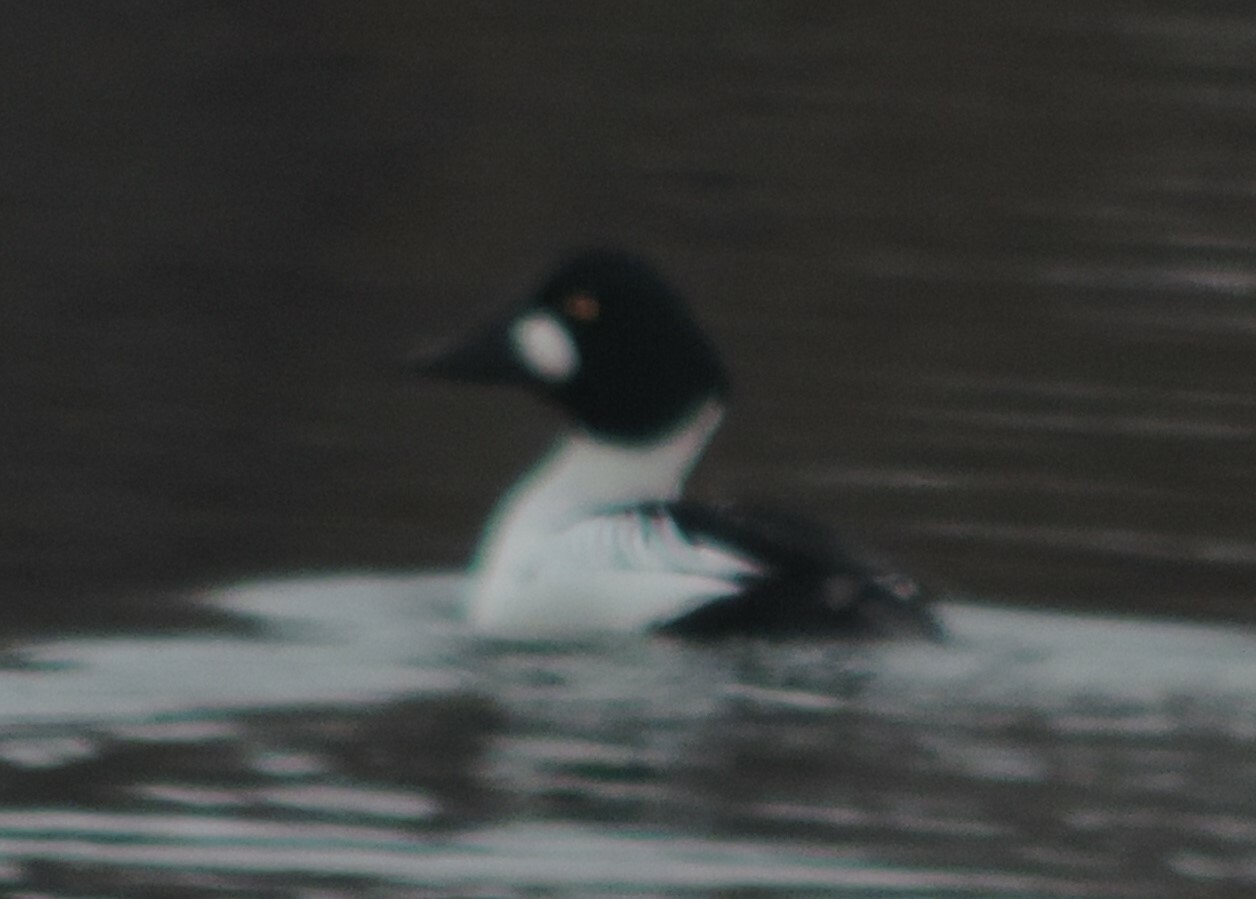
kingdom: Animalia
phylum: Chordata
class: Aves
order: Anseriformes
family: Anatidae
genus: Bucephala
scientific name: Bucephala clangula
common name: Common goldeneye
